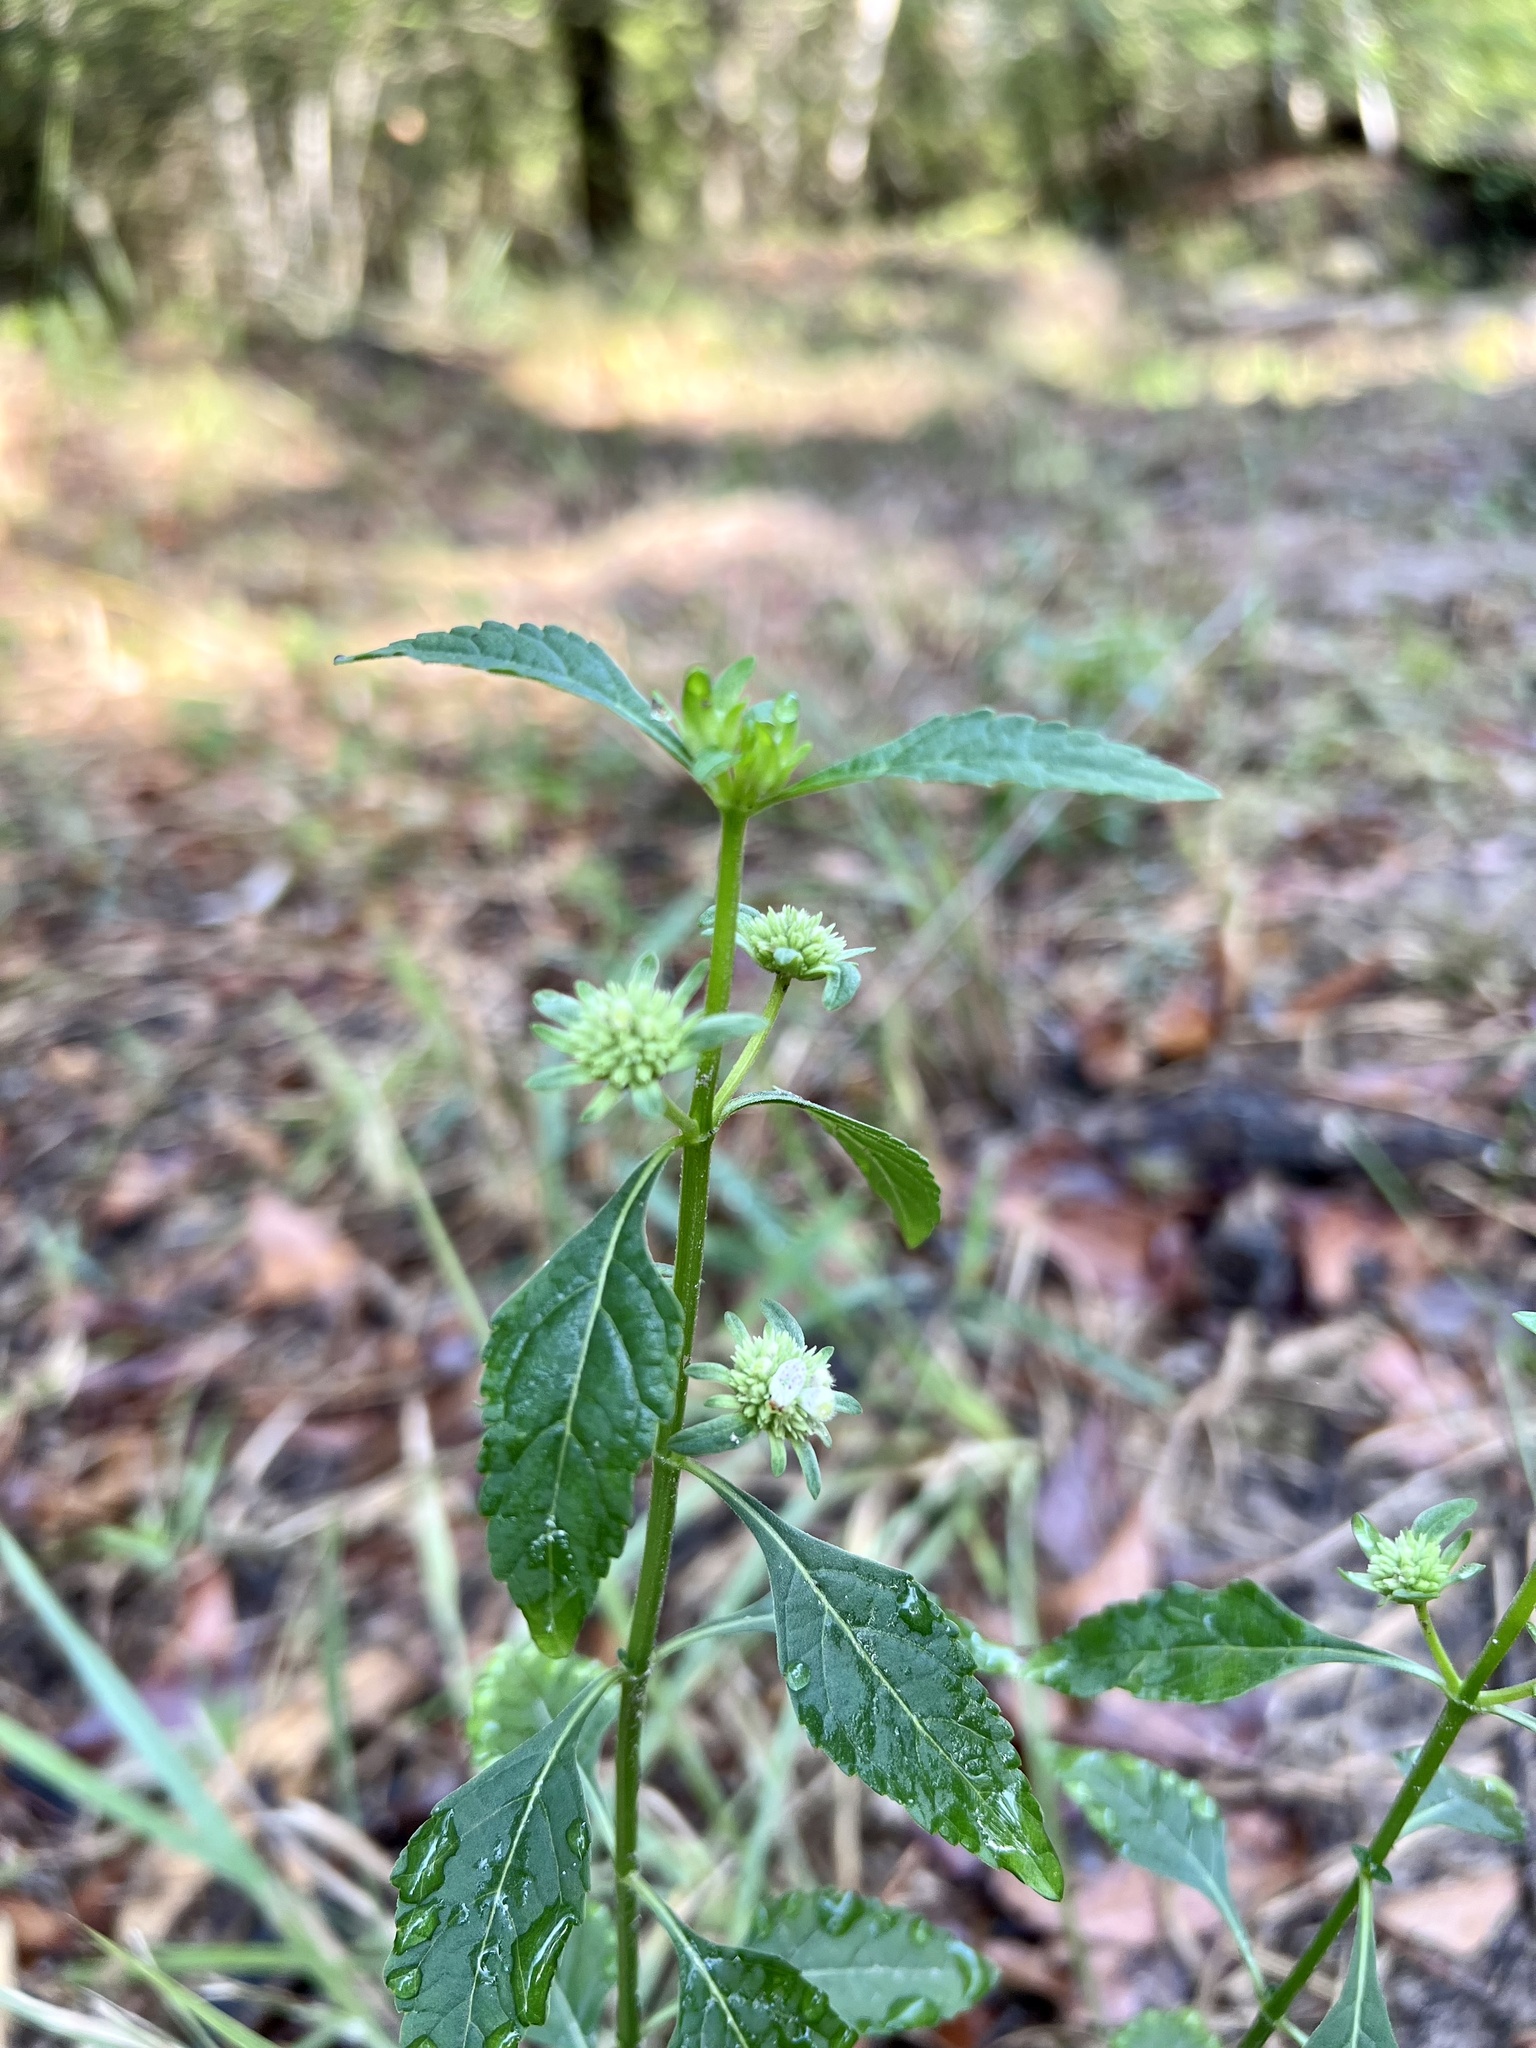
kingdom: Plantae
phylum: Tracheophyta
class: Magnoliopsida
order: Lamiales
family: Lamiaceae
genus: Hyptis
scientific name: Hyptis alata
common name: Cluster bush-mint
